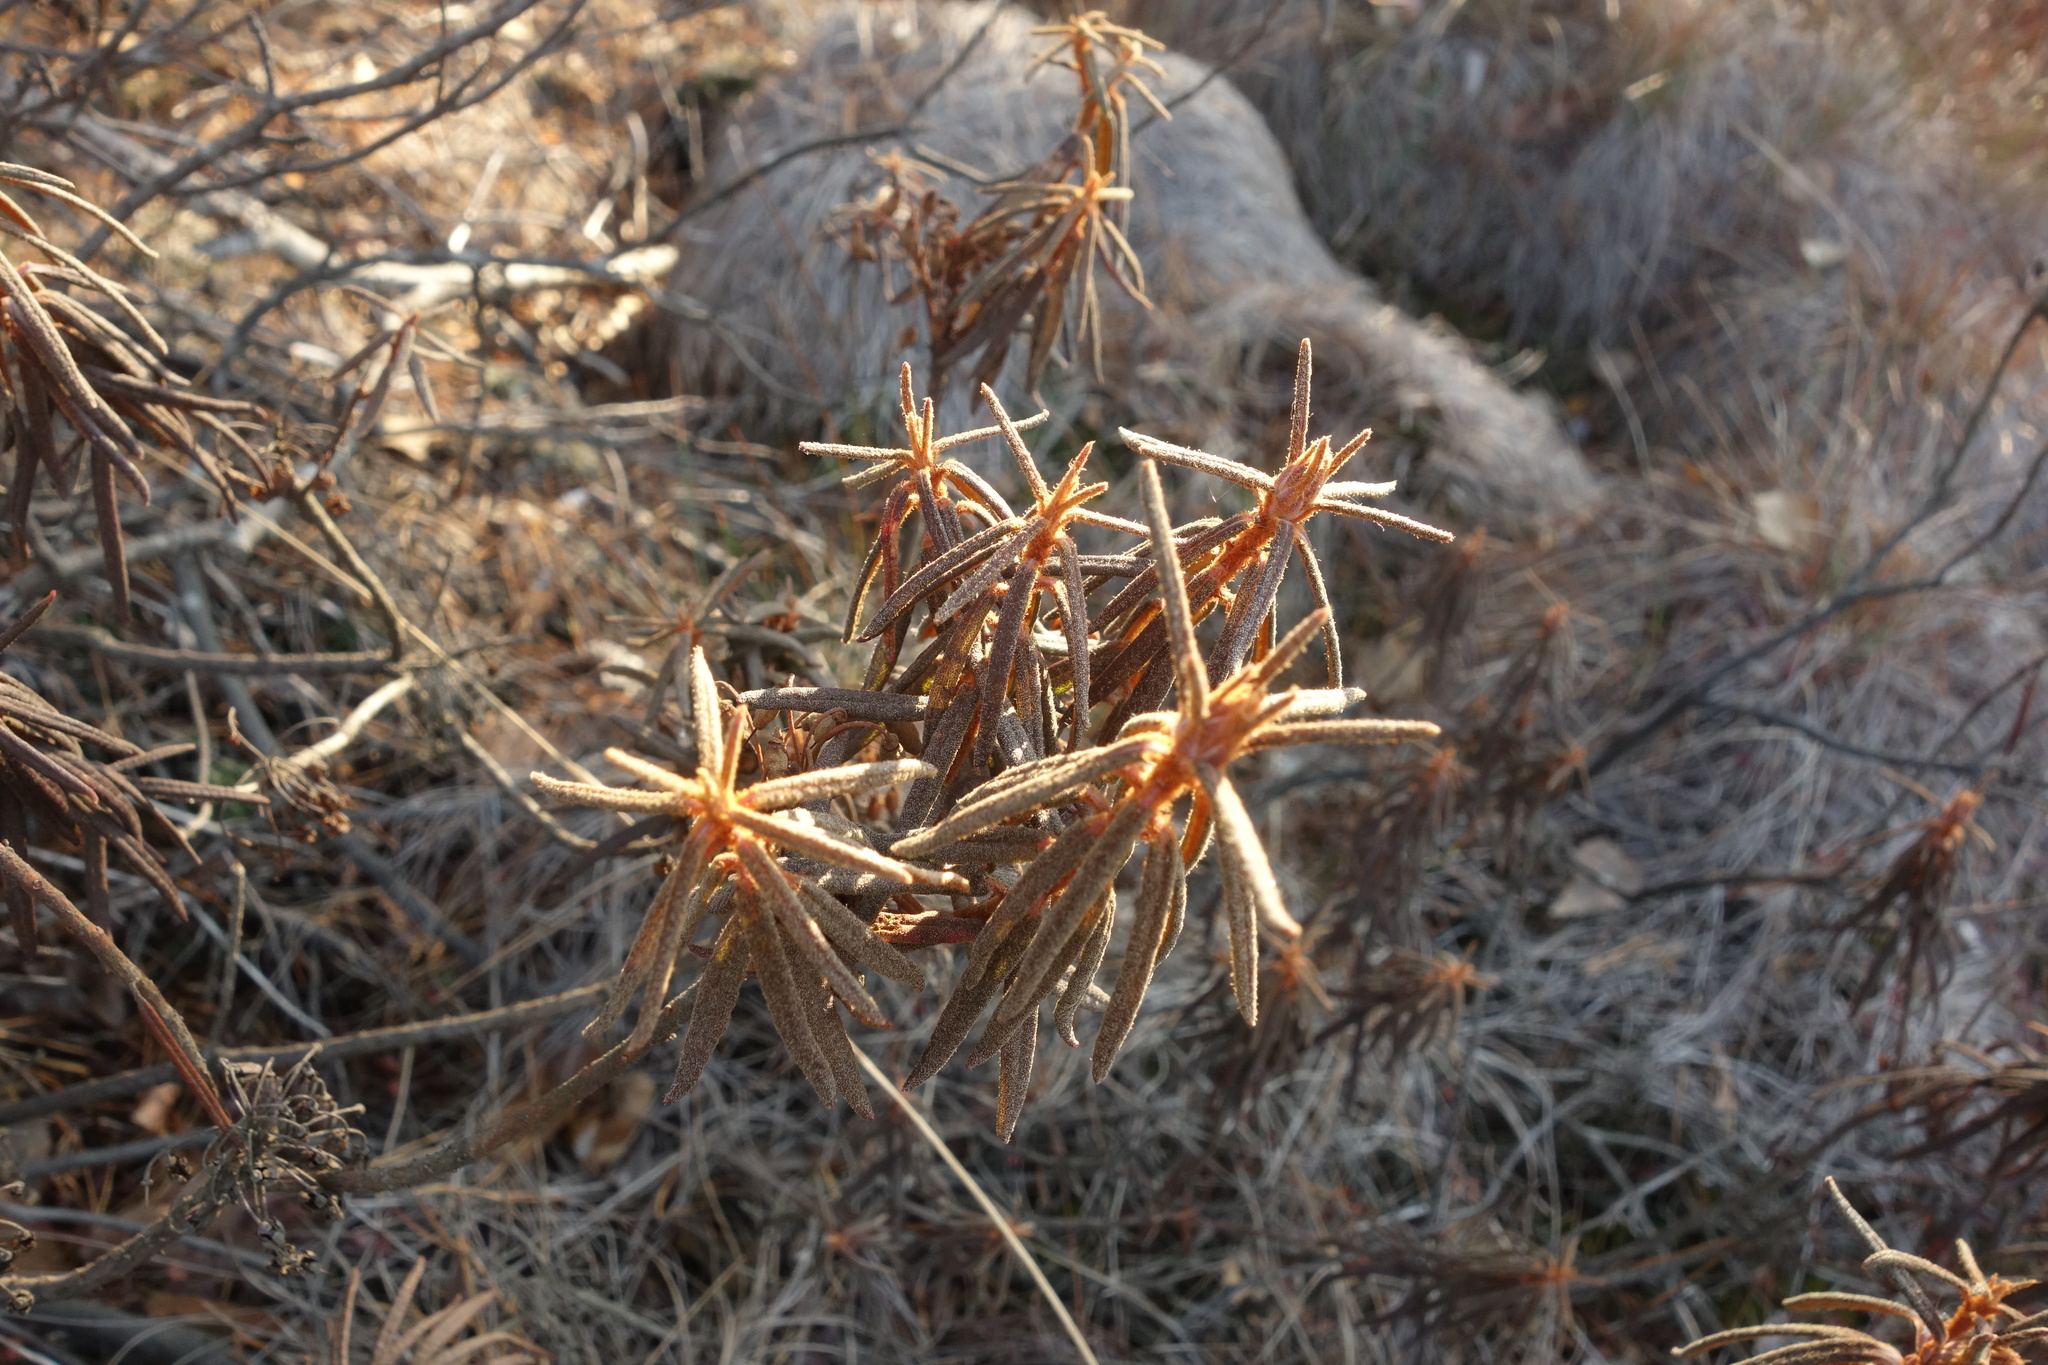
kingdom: Plantae
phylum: Tracheophyta
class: Magnoliopsida
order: Ericales
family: Ericaceae
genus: Rhododendron
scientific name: Rhododendron tomentosum
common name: Marsh labrador tea
